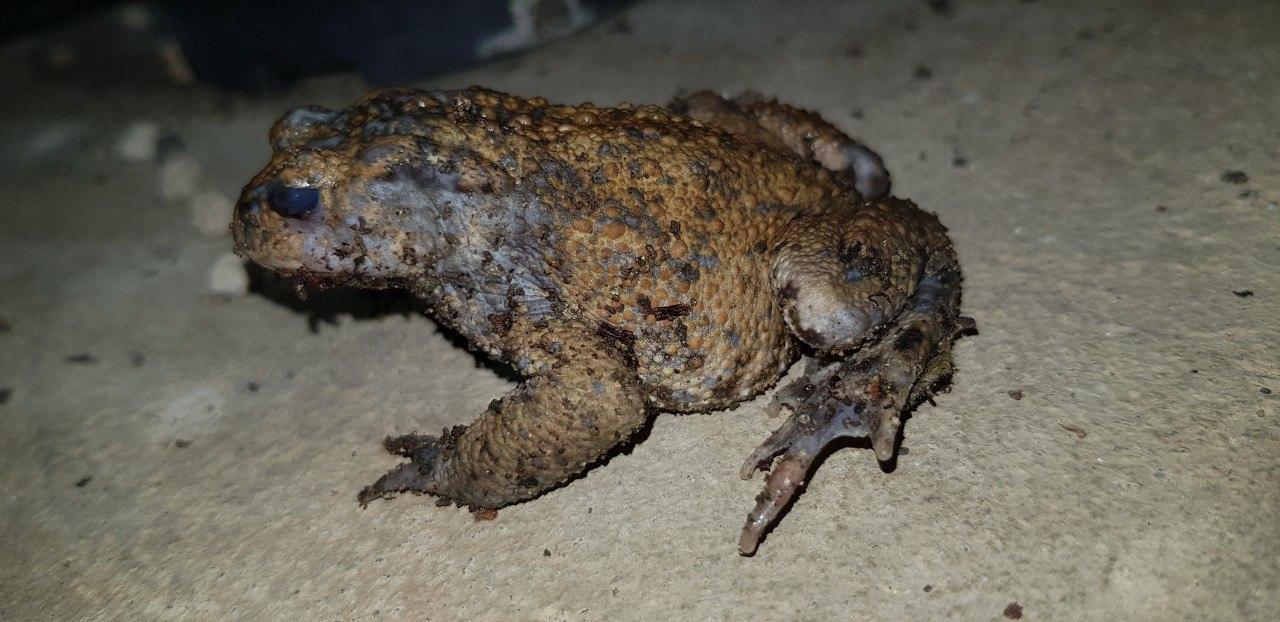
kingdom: Animalia
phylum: Chordata
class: Amphibia
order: Anura
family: Bufonidae
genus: Bufo
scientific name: Bufo bufo
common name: Common toad
